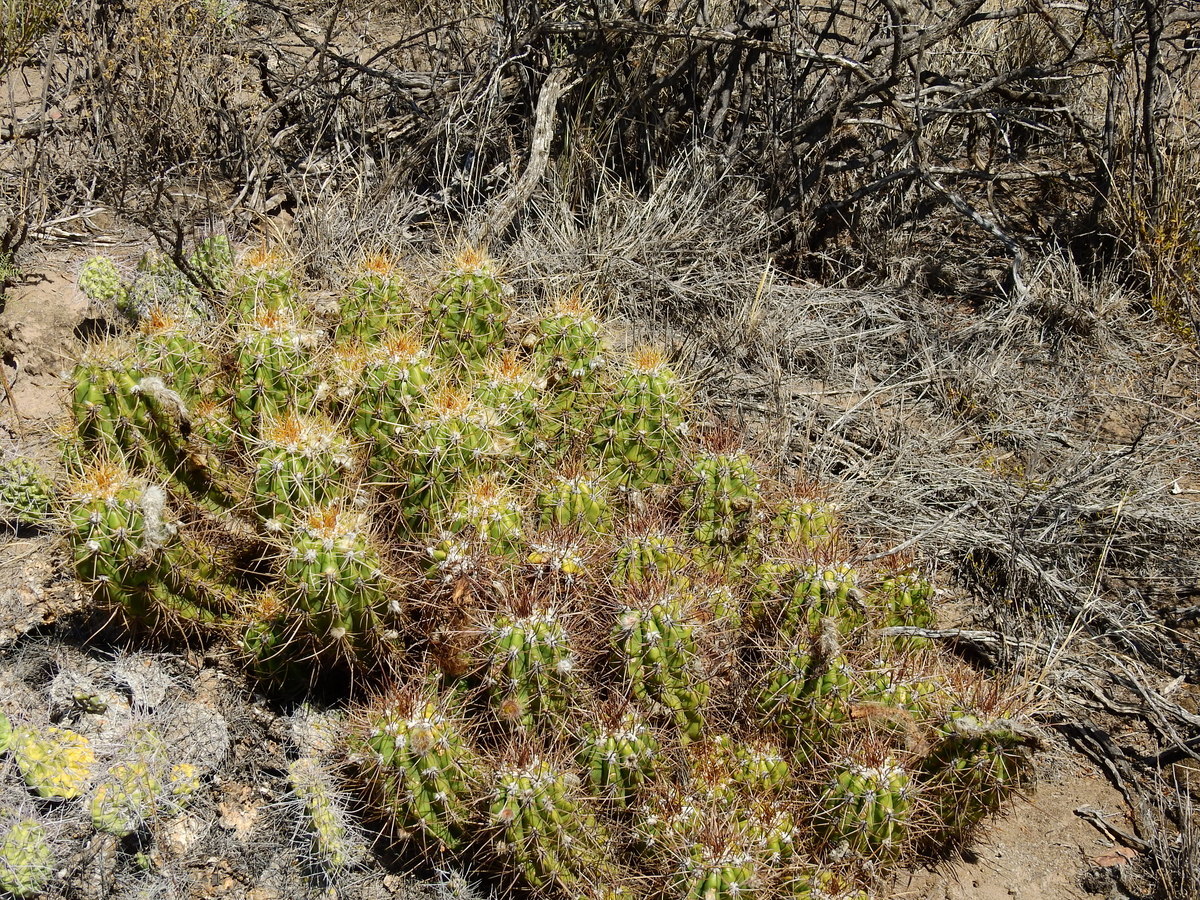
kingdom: Plantae
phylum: Tracheophyta
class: Magnoliopsida
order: Caryophyllales
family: Cactaceae
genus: Soehrensia
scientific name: Soehrensia candicans
